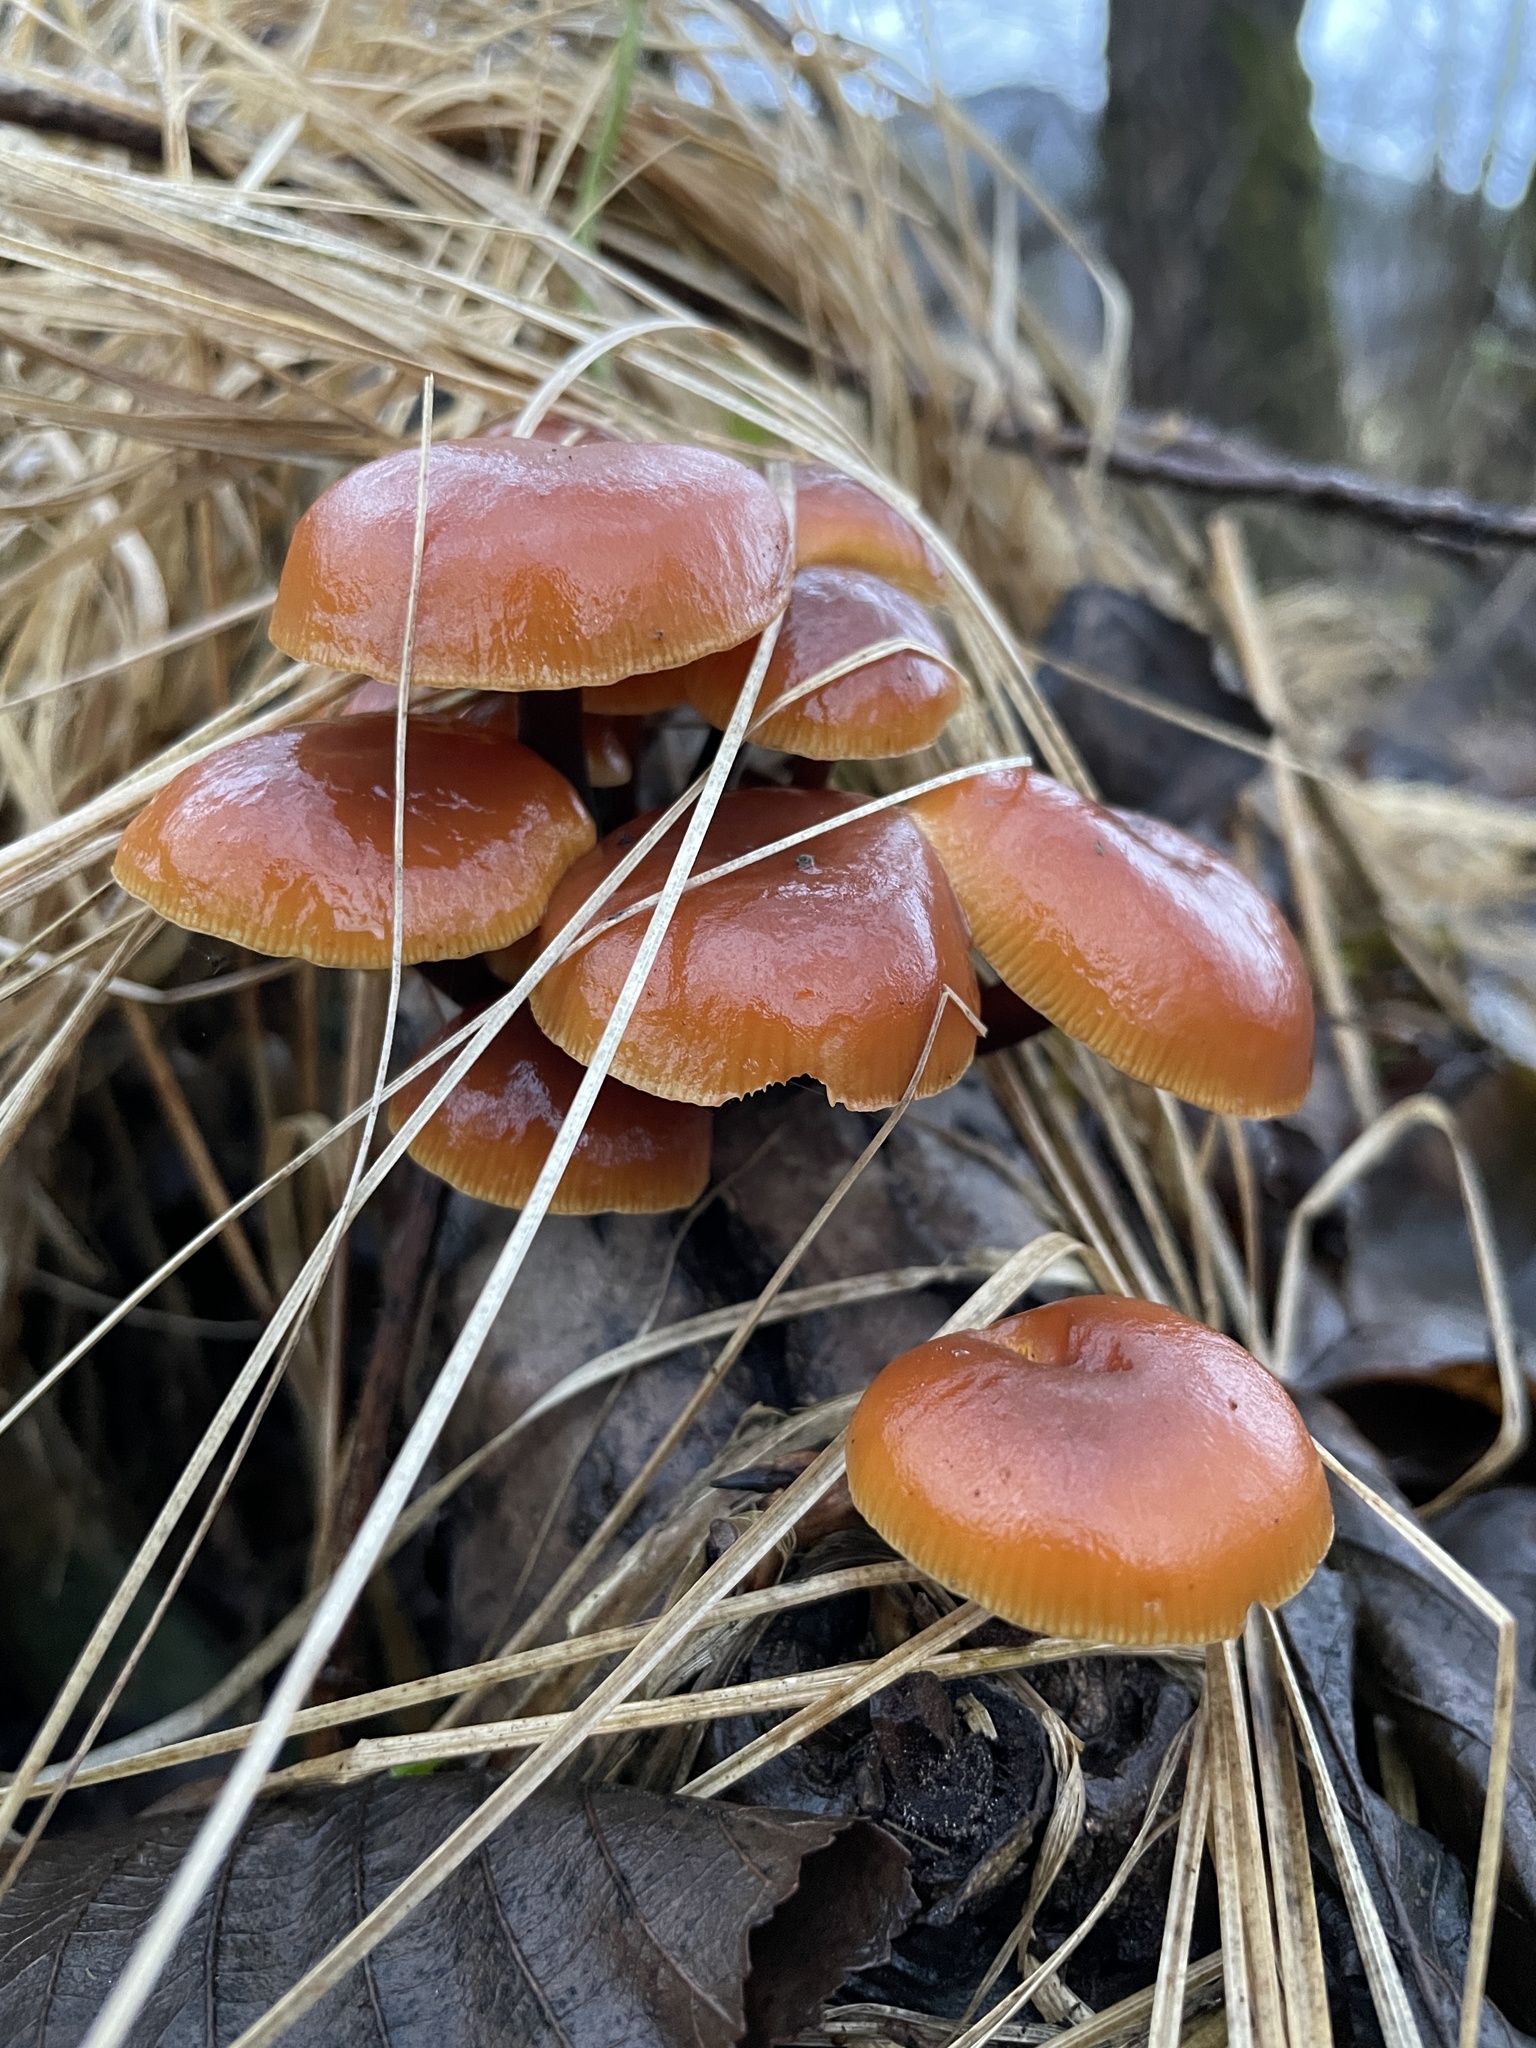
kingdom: Fungi
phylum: Basidiomycota
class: Agaricomycetes
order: Agaricales
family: Physalacriaceae
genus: Flammulina
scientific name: Flammulina
